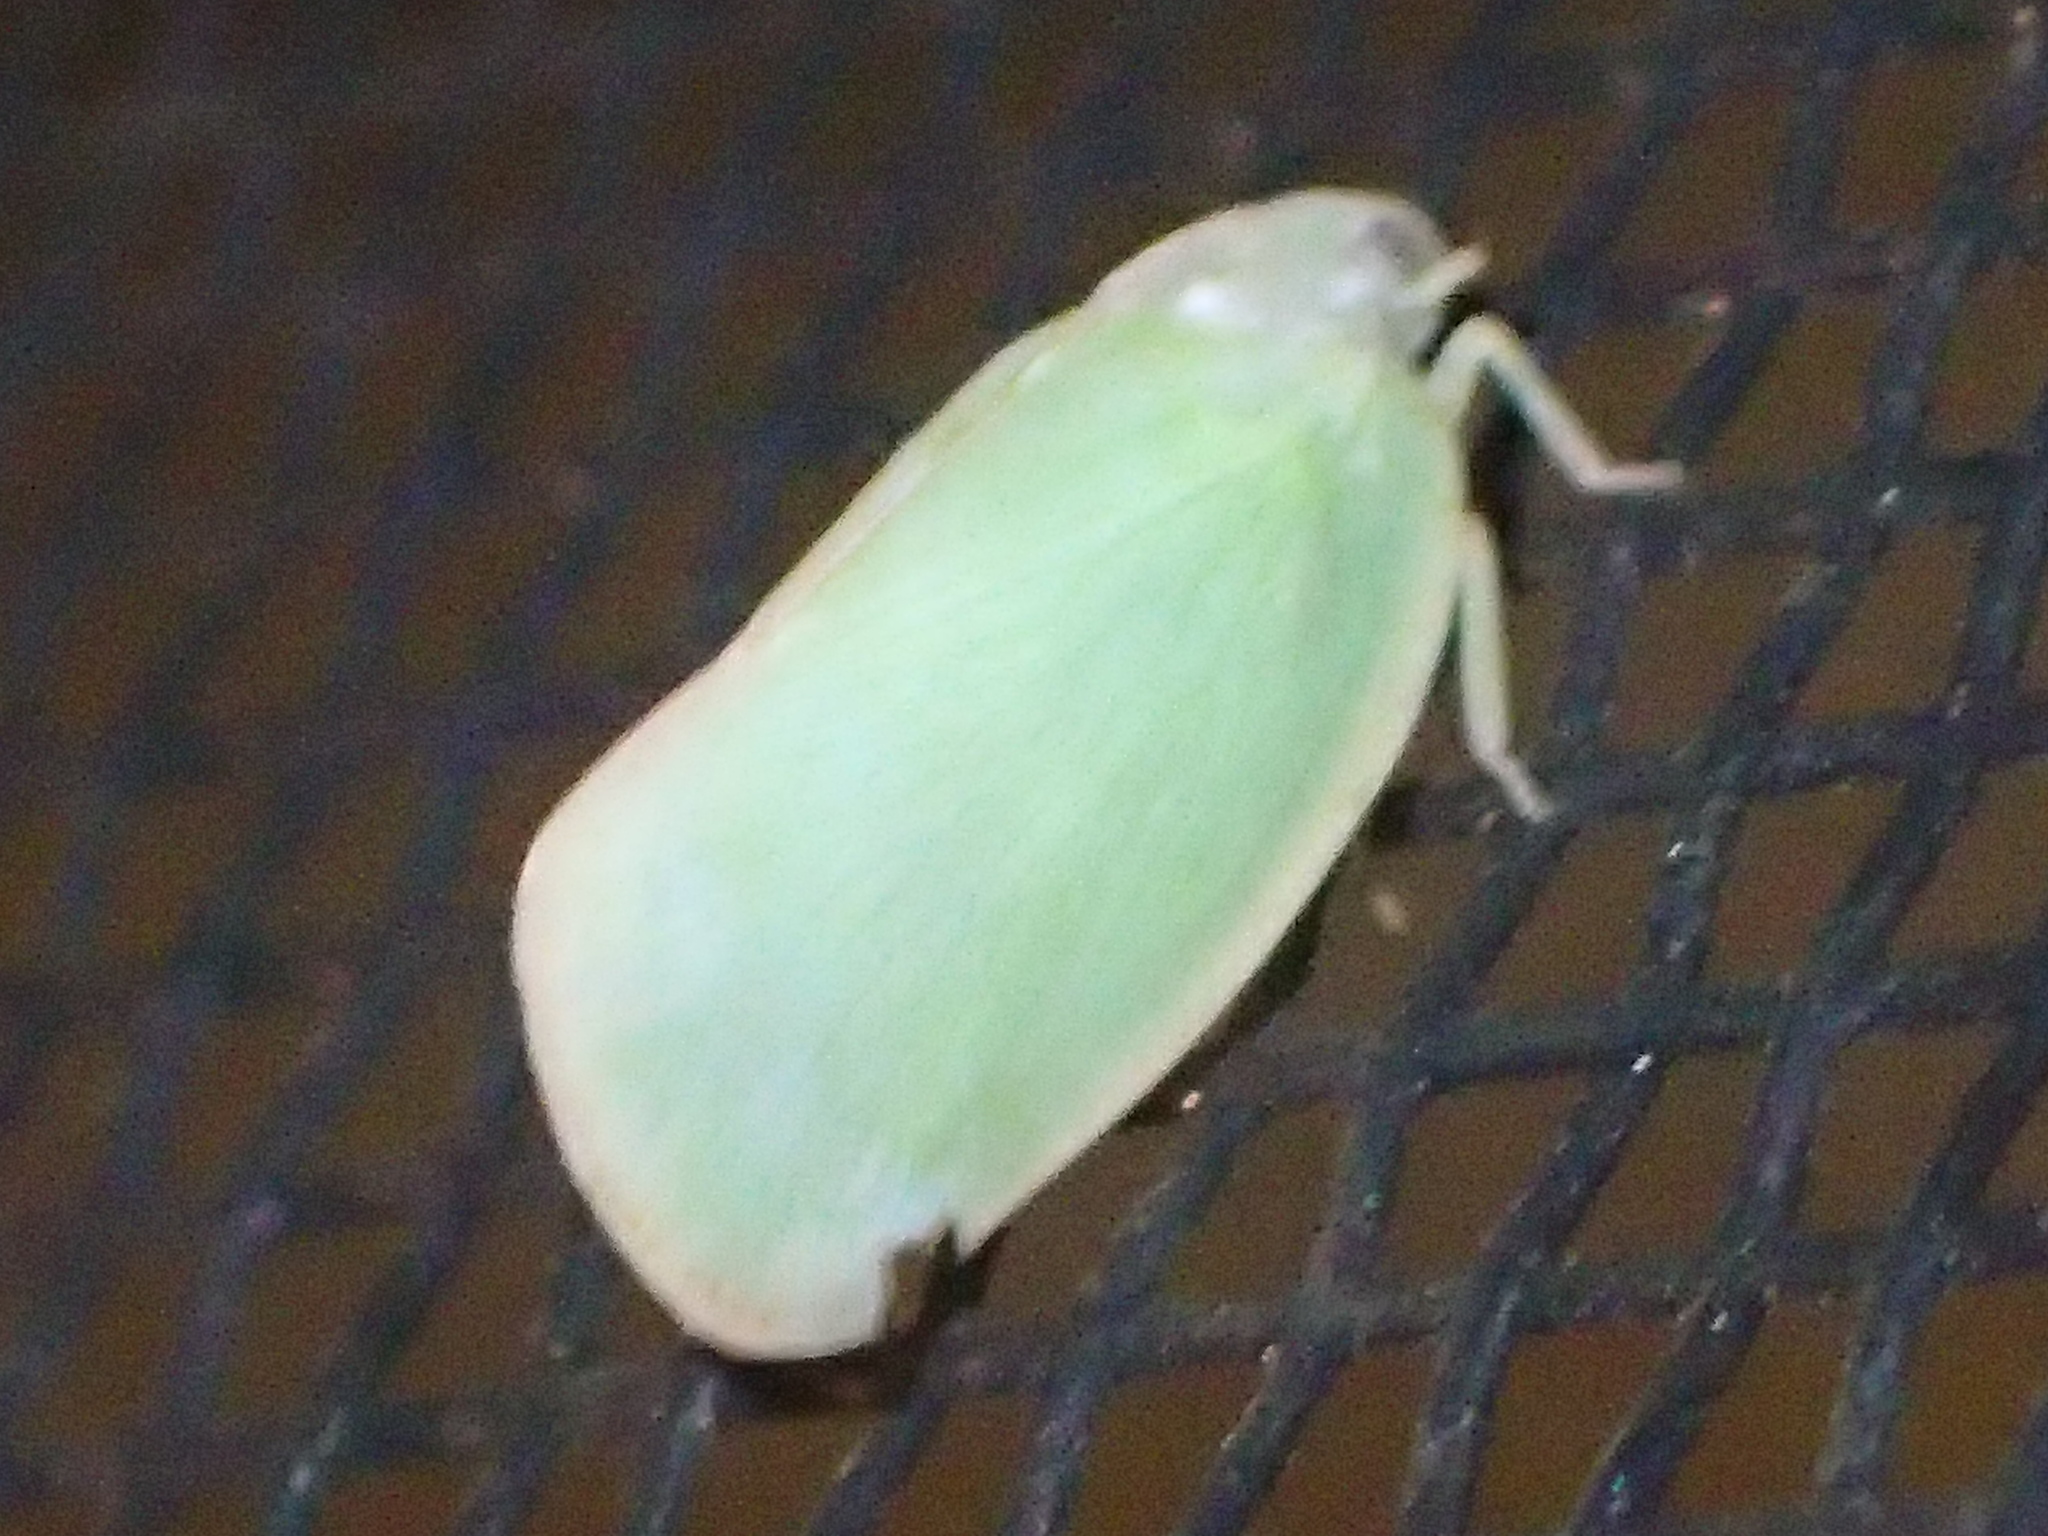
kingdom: Animalia
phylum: Arthropoda
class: Insecta
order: Hemiptera
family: Flatidae
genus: Ormenoides
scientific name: Ormenoides venusta
